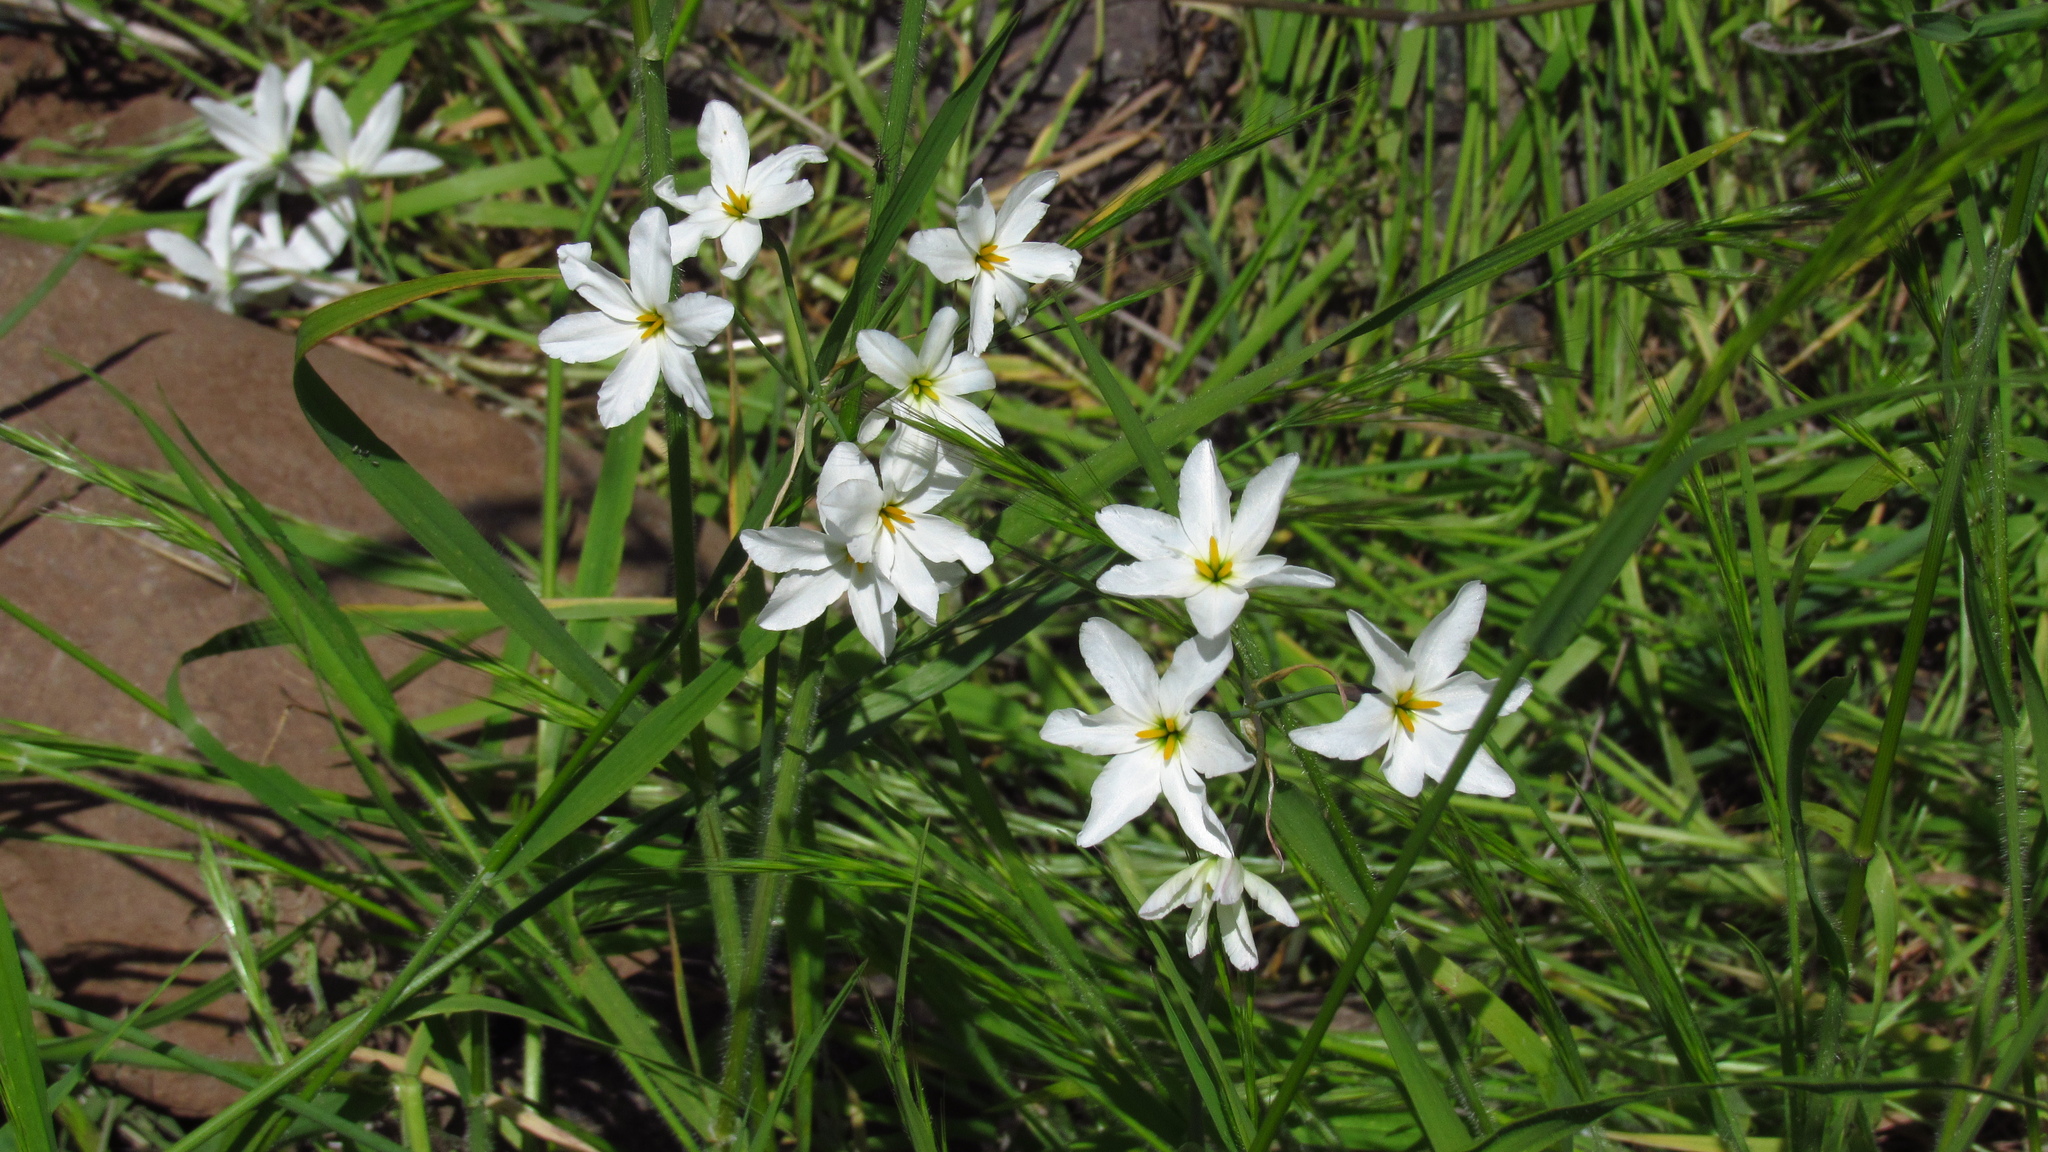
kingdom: Plantae
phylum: Tracheophyta
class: Liliopsida
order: Asparagales
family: Amaryllidaceae
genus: Leucocoryne
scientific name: Leucocoryne ixioides
